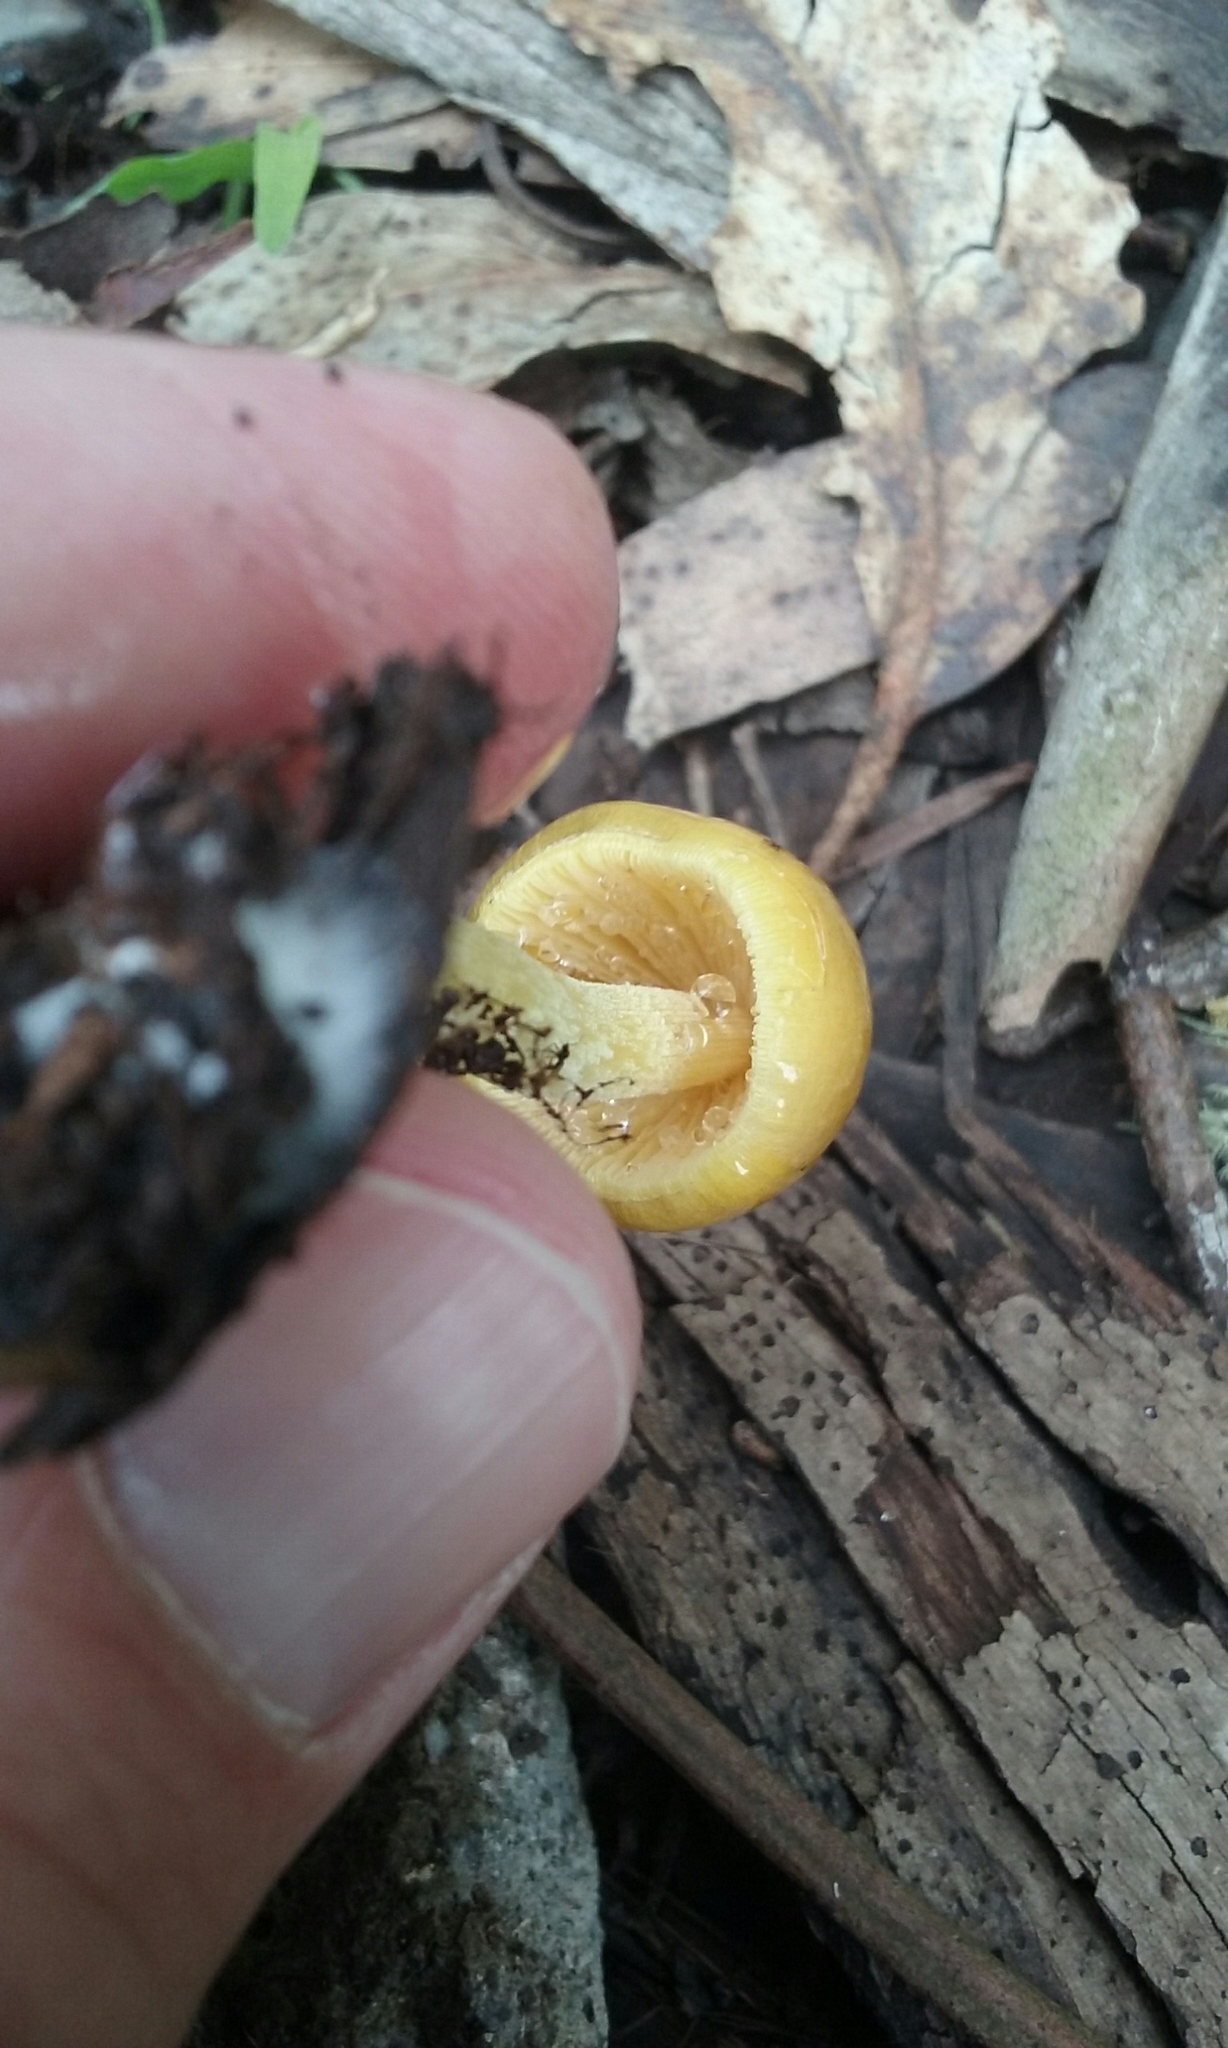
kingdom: Fungi
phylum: Basidiomycota
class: Agaricomycetes
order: Agaricales
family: Bolbitiaceae
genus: Bolbitius
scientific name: Bolbitius titubans
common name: Yellow fieldcap
